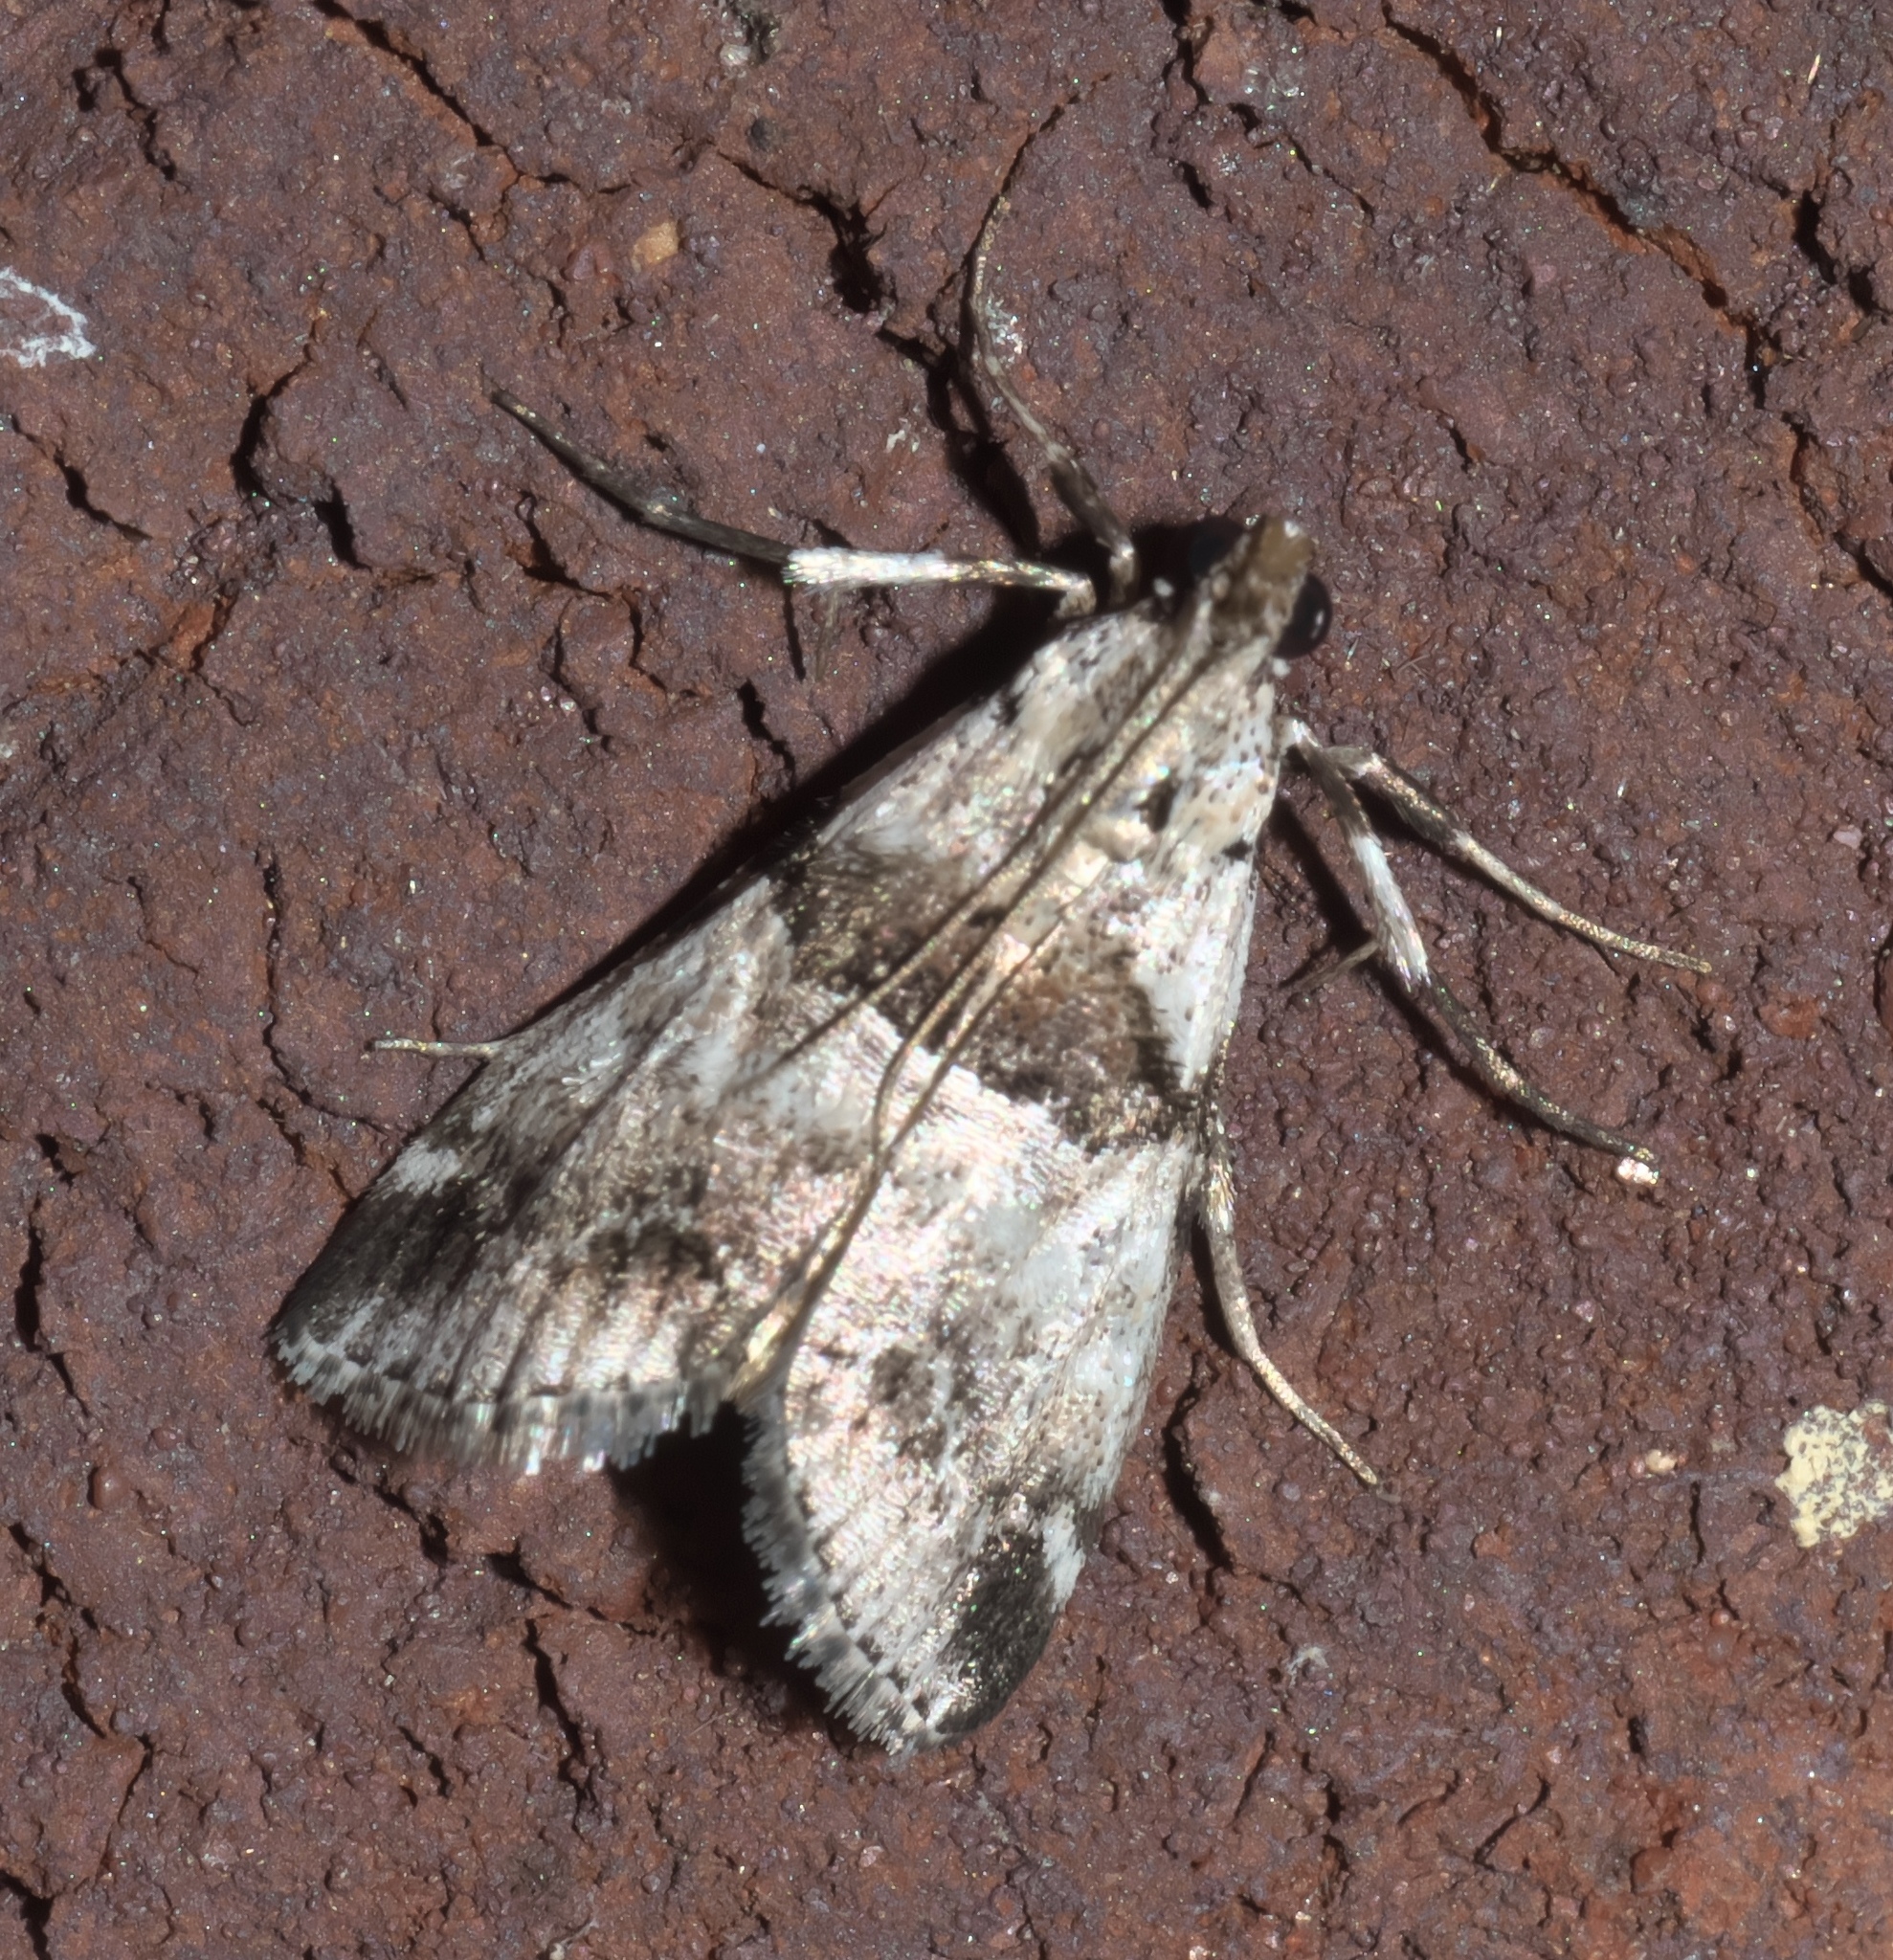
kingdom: Animalia
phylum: Arthropoda
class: Insecta
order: Lepidoptera
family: Pyralidae
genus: Tallula
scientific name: Tallula atrifascialis
